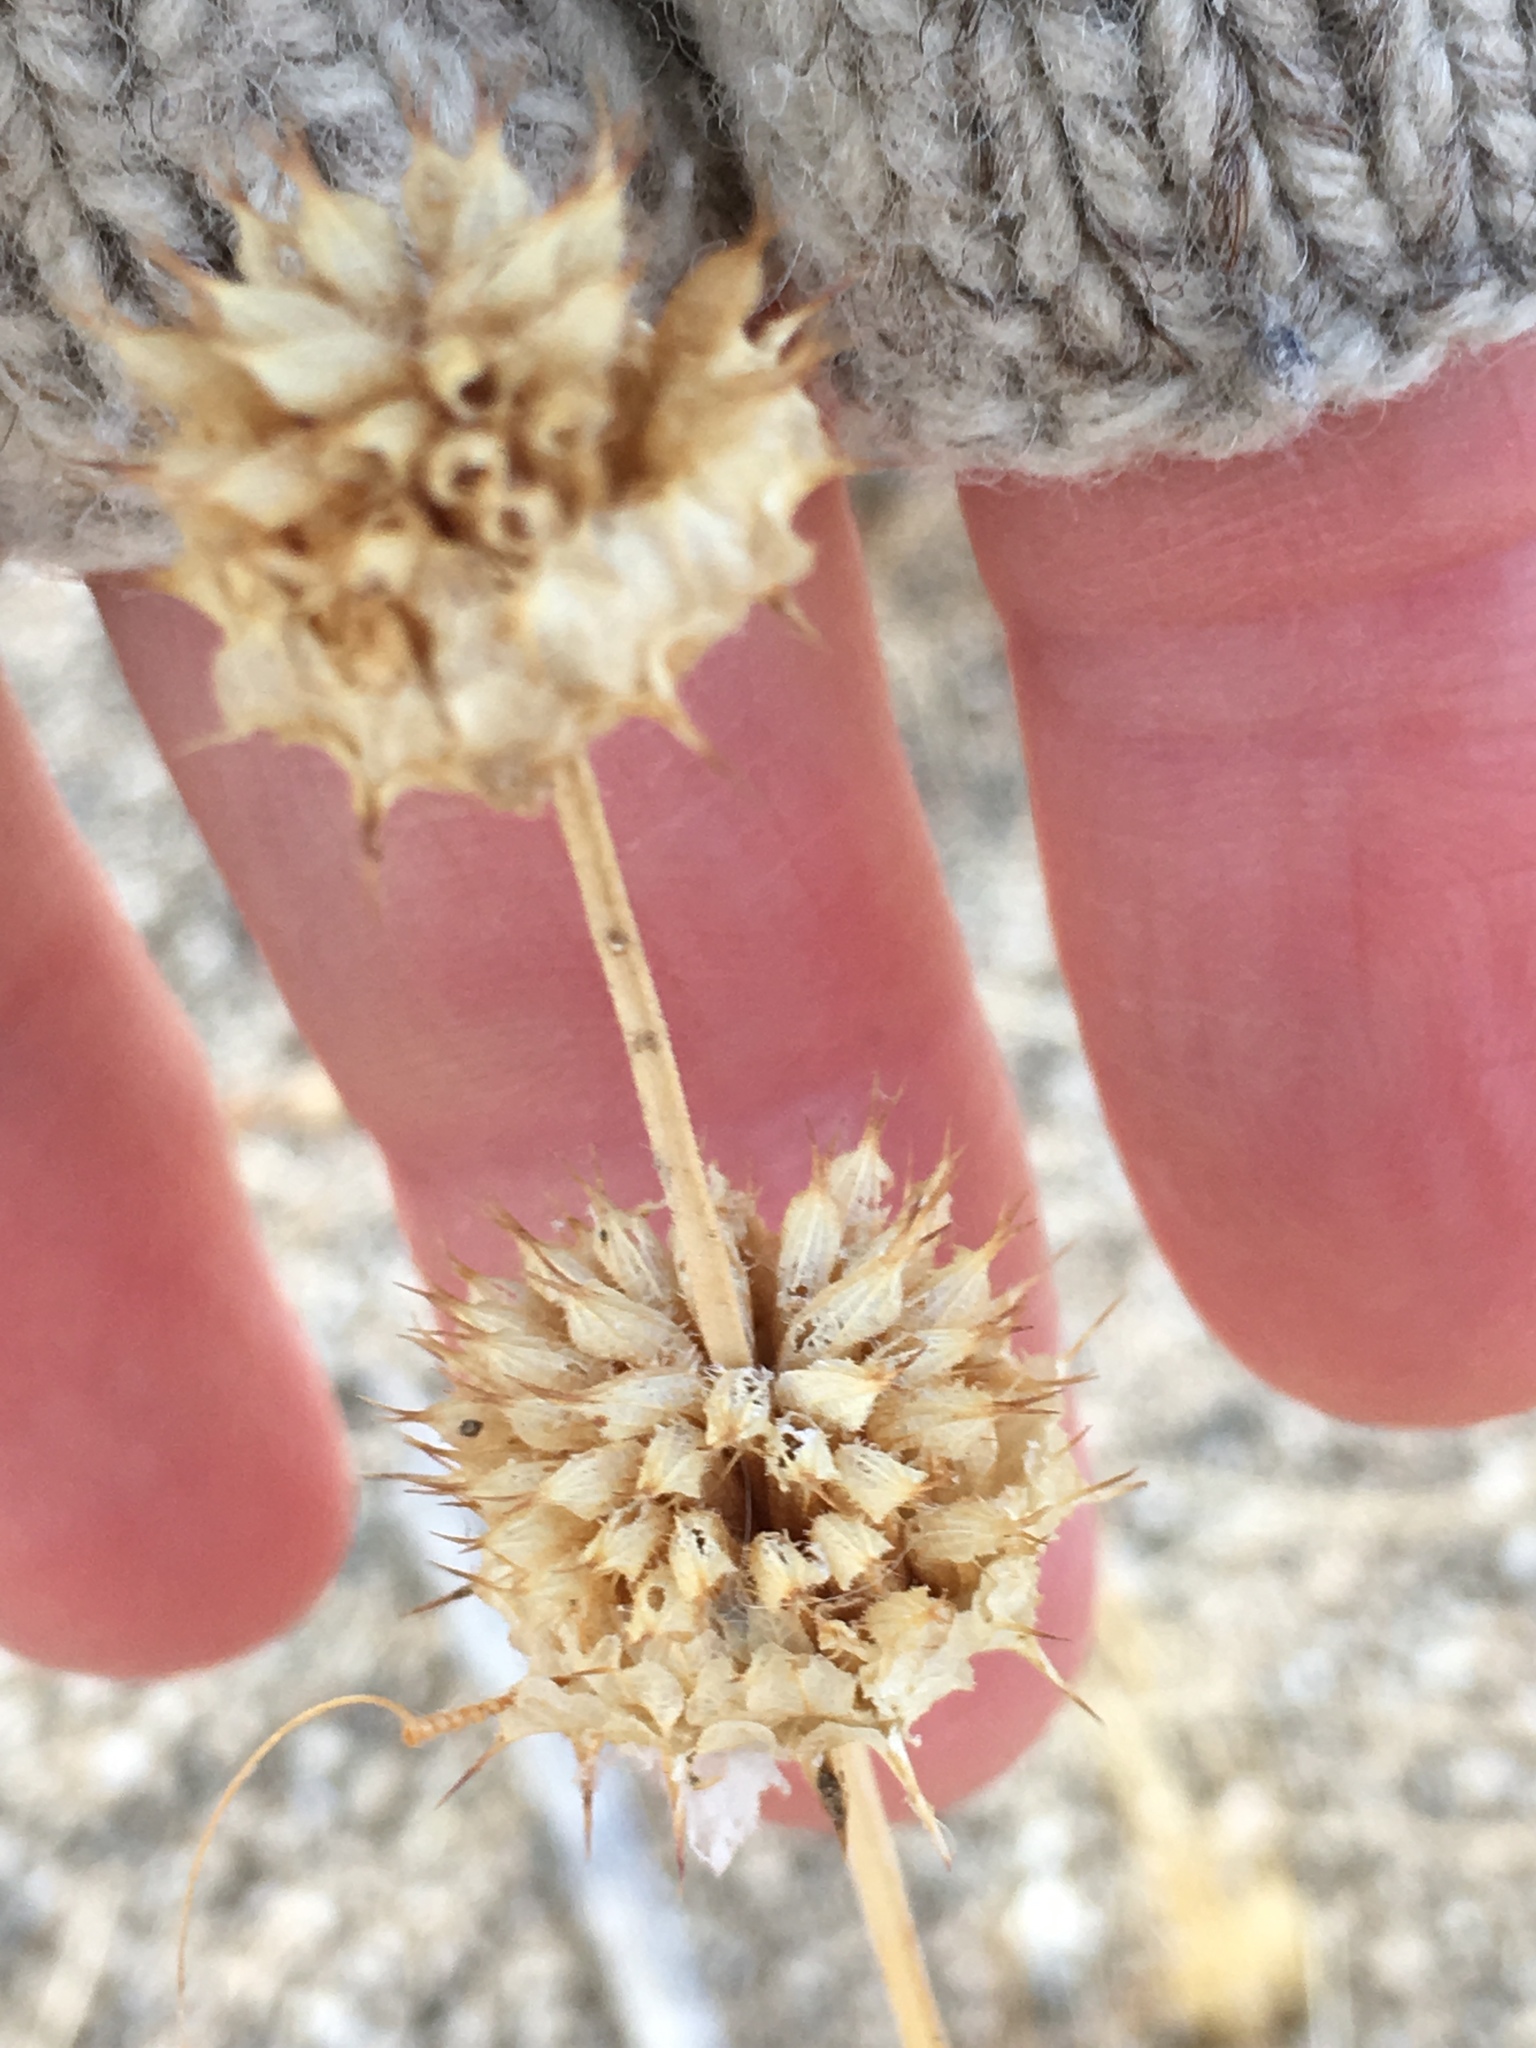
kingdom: Plantae
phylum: Tracheophyta
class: Magnoliopsida
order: Lamiales
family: Lamiaceae
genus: Salvia
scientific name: Salvia columbariae
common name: Chia
